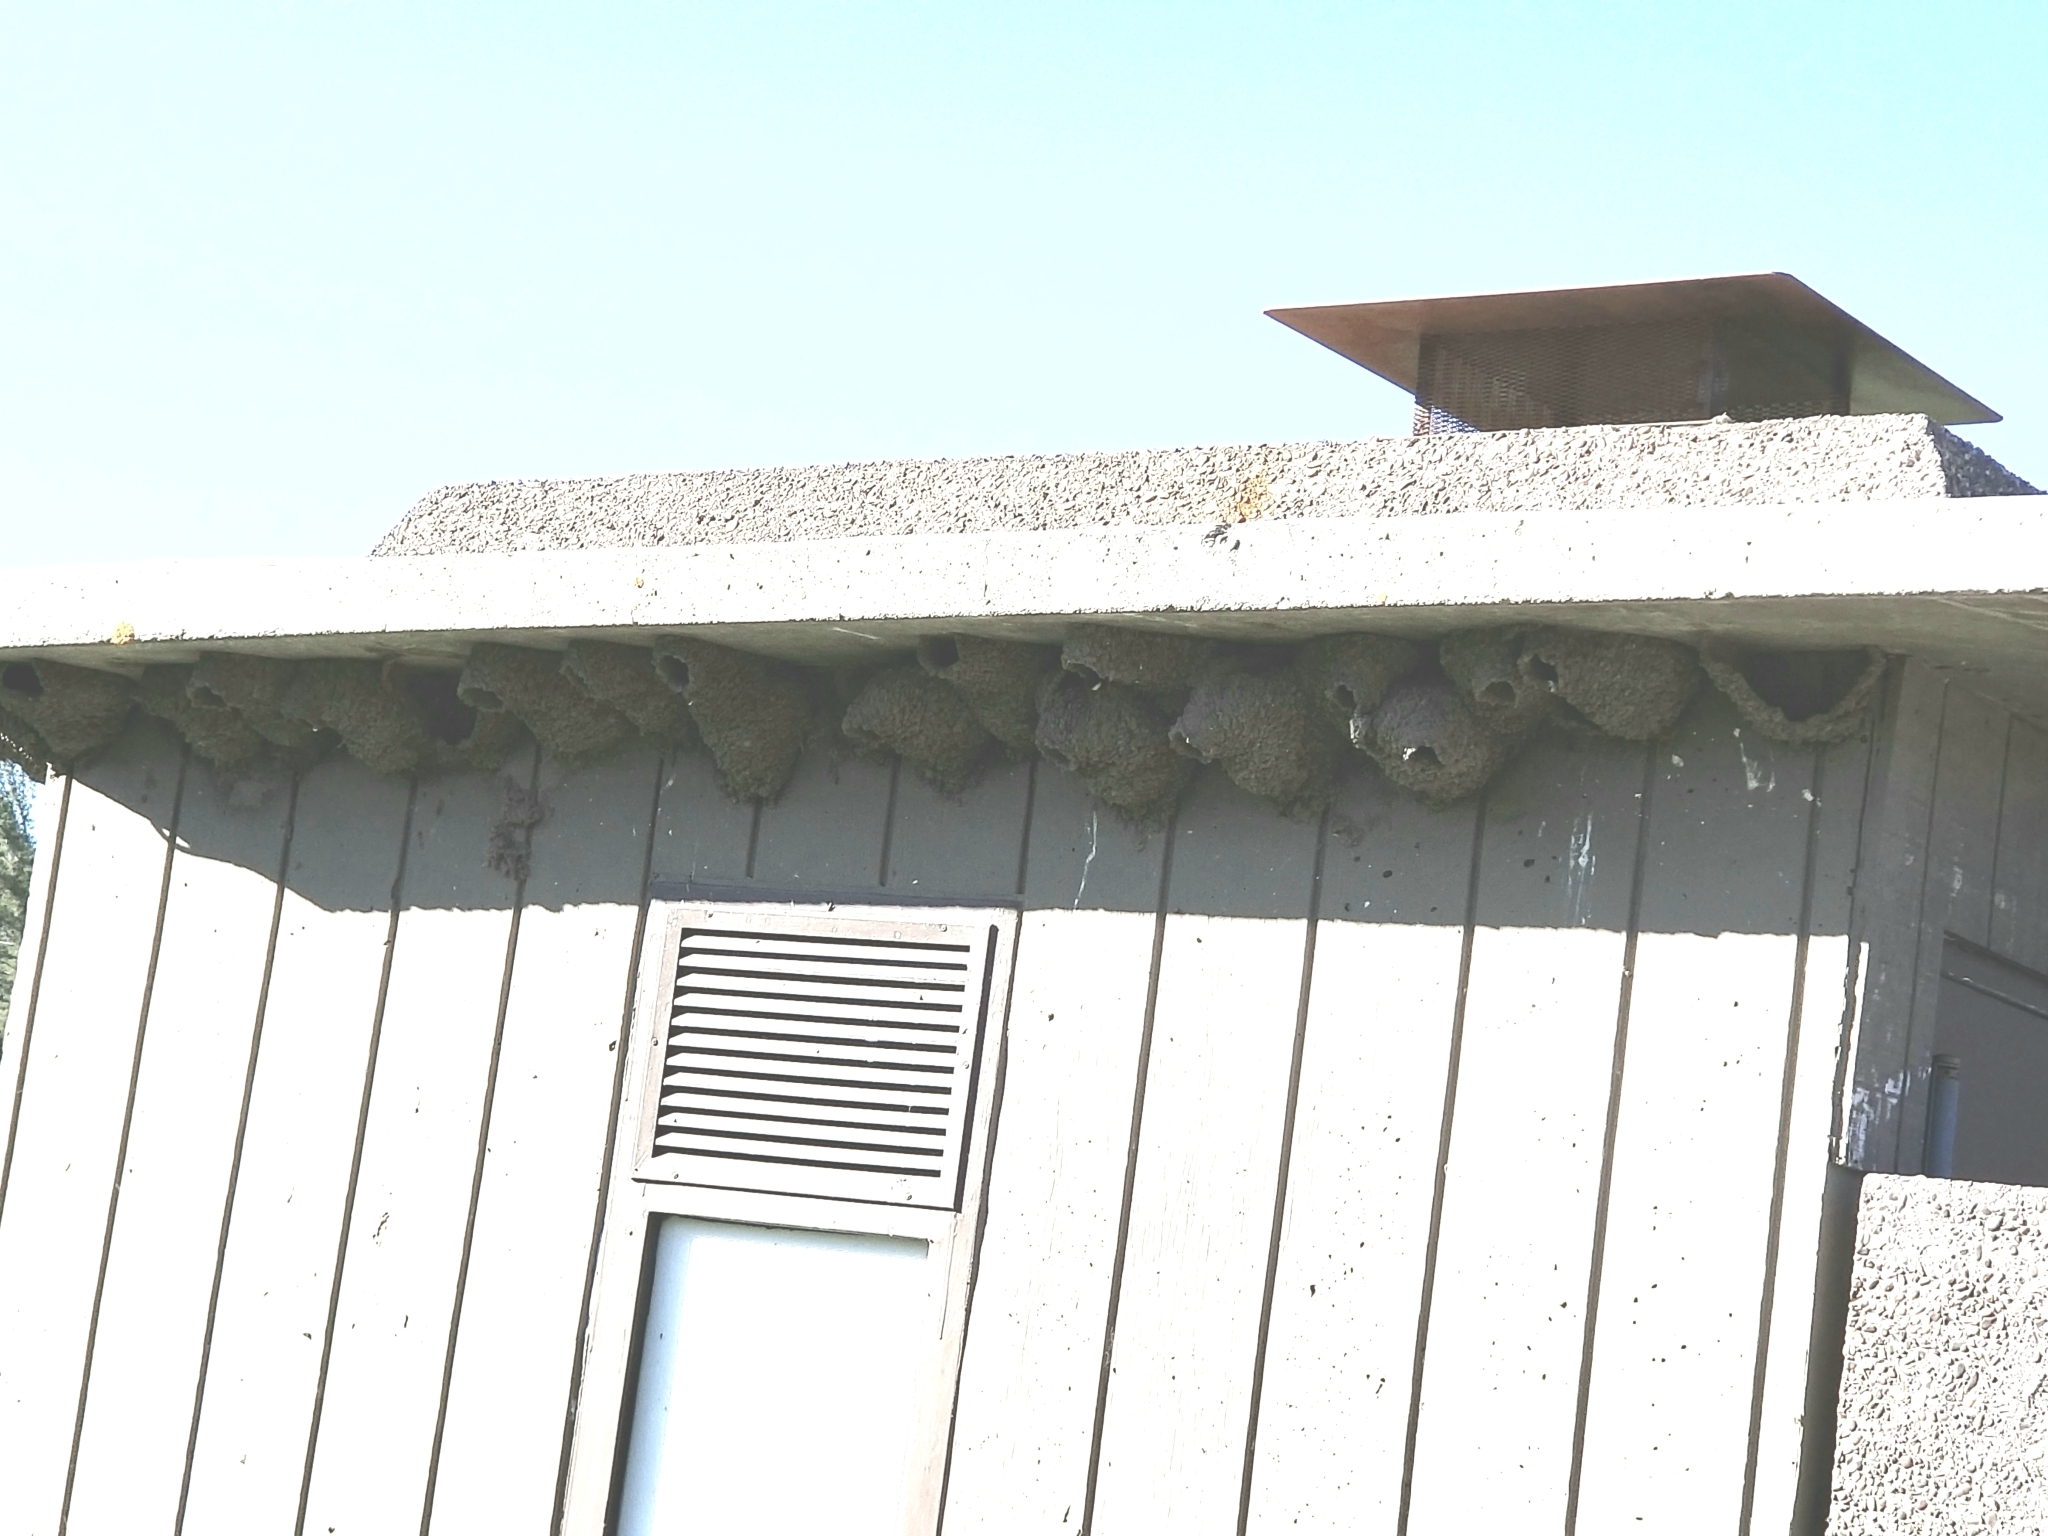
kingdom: Animalia
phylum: Chordata
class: Aves
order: Passeriformes
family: Hirundinidae
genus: Petrochelidon
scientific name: Petrochelidon pyrrhonota
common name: American cliff swallow
